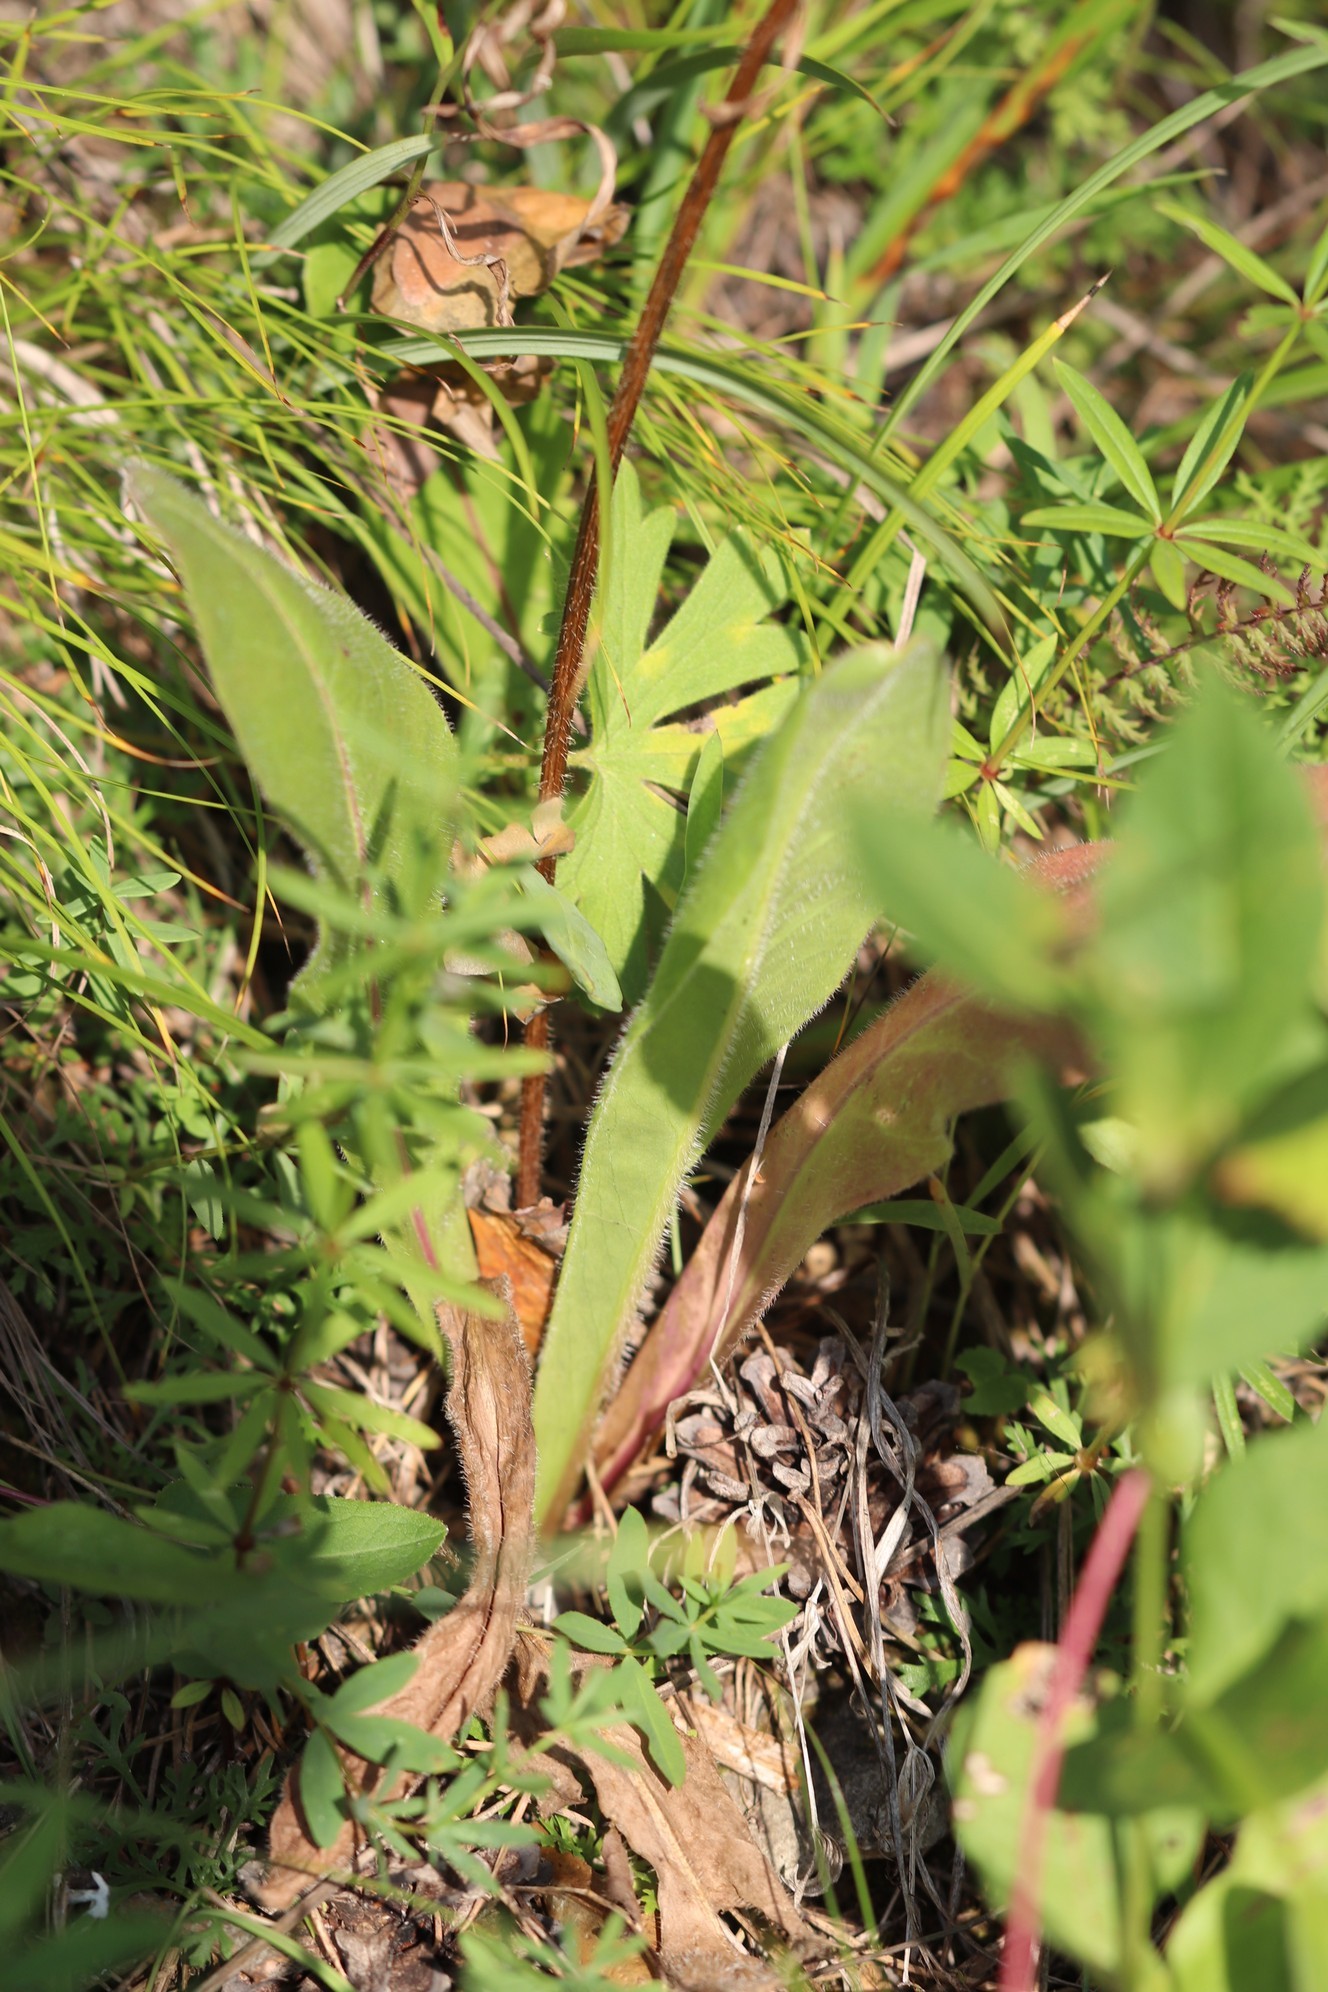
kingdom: Plantae
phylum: Tracheophyta
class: Magnoliopsida
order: Asterales
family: Asteraceae
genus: Trommsdorffia
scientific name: Trommsdorffia maculata
